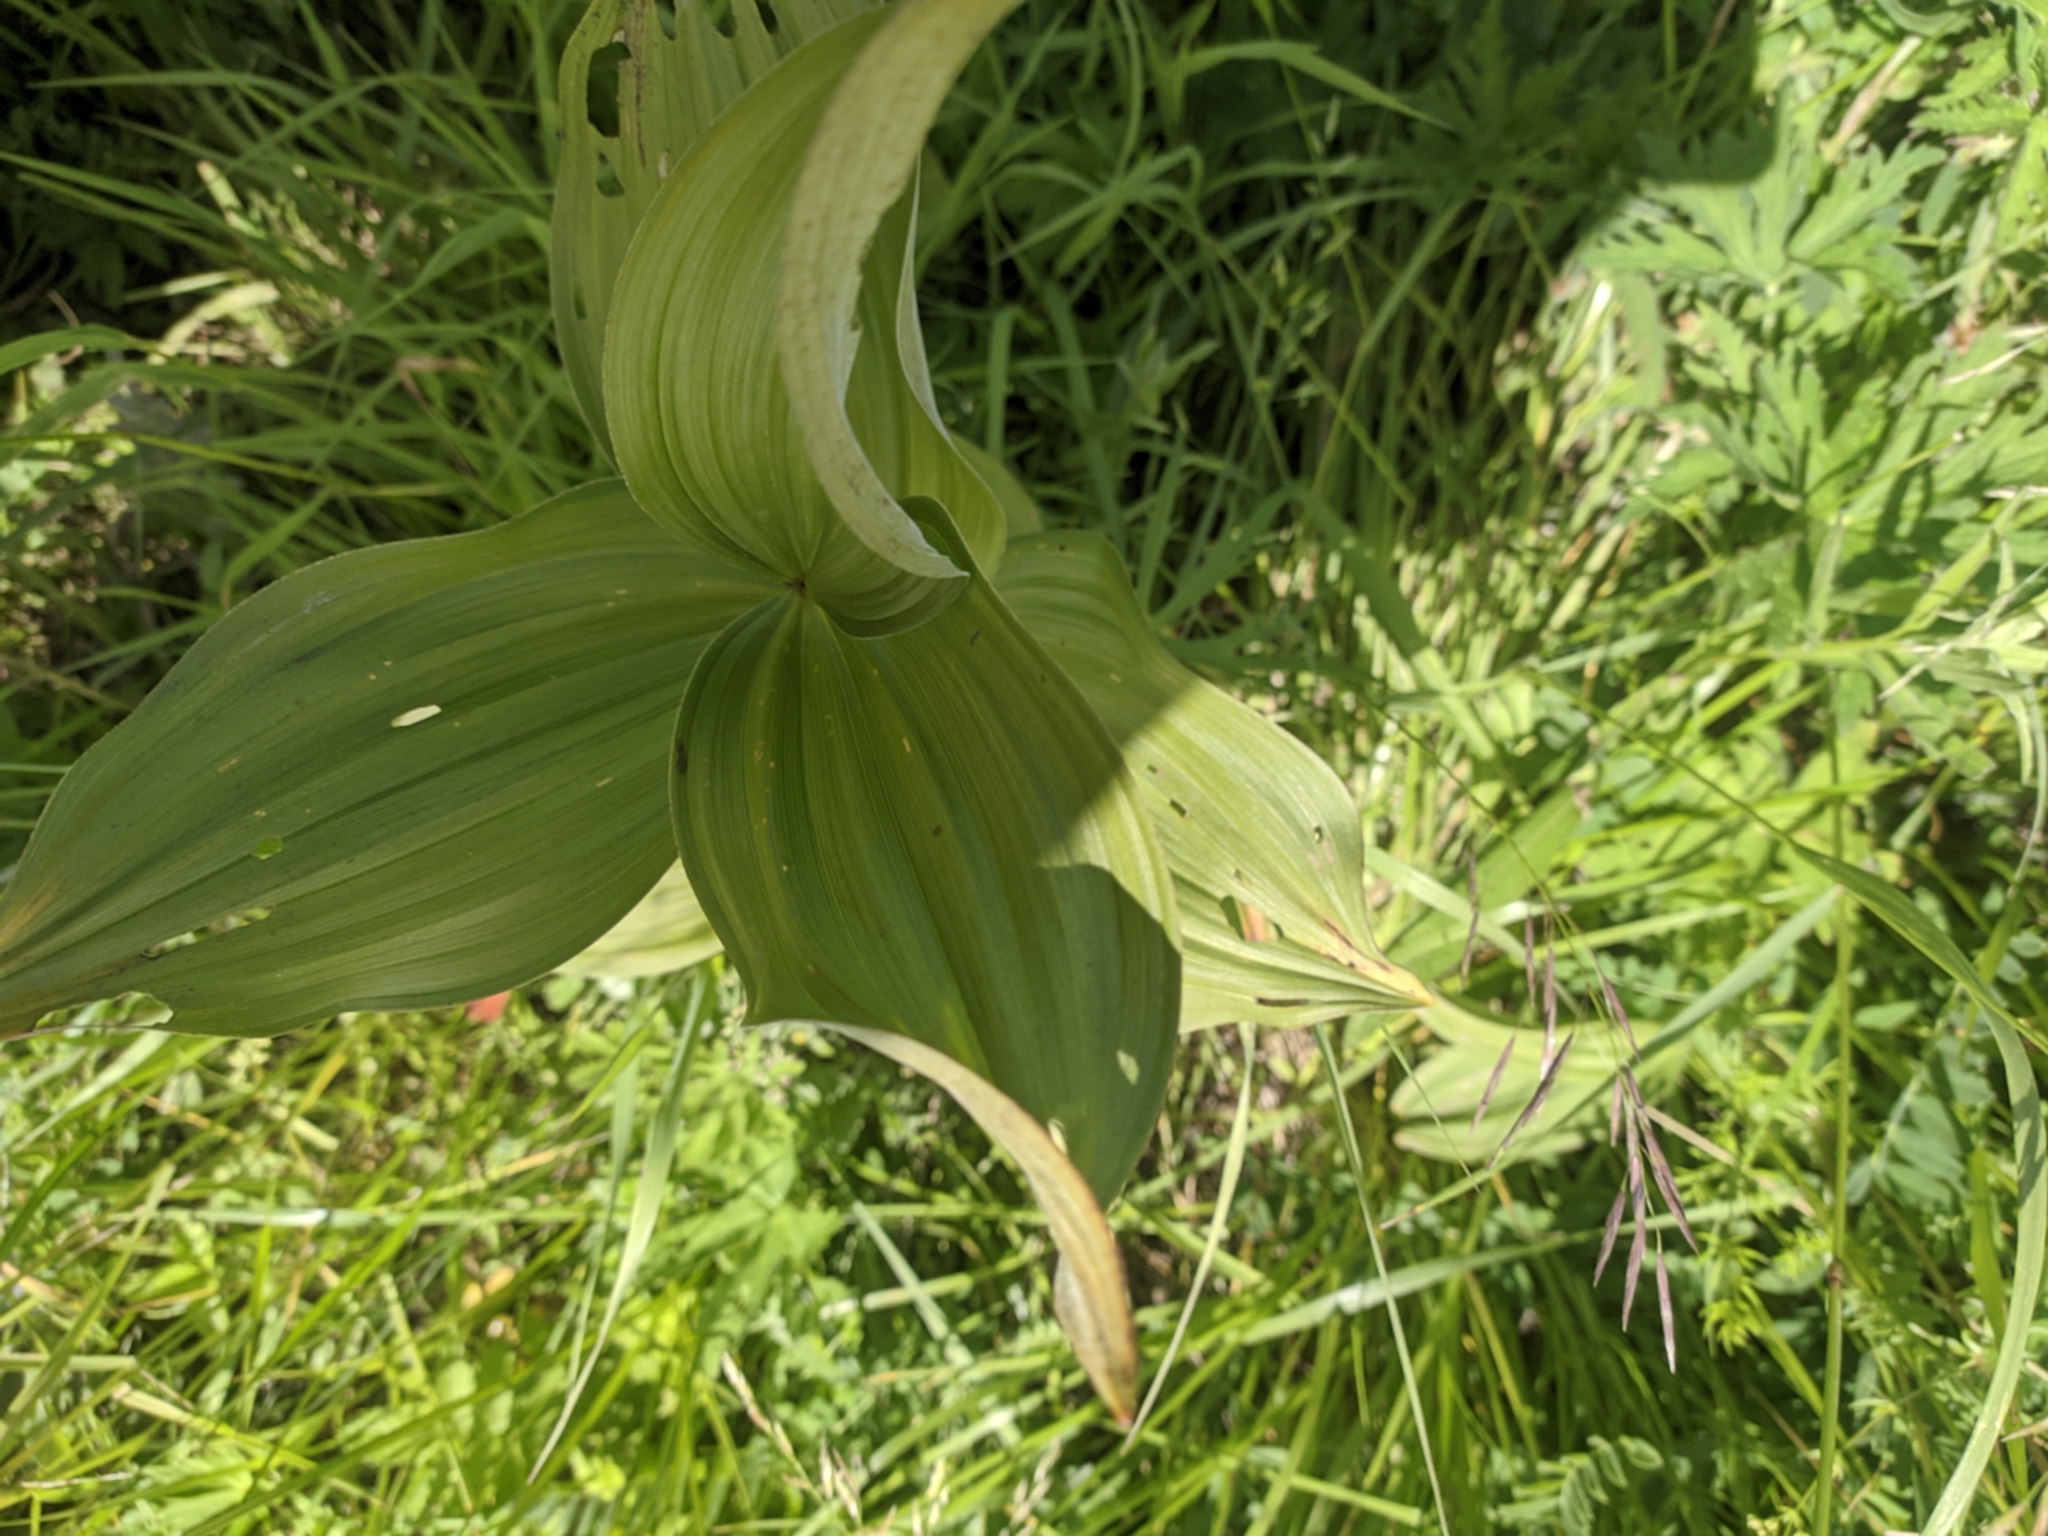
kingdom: Plantae
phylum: Tracheophyta
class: Liliopsida
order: Liliales
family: Melanthiaceae
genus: Veratrum
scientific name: Veratrum lobelianum
